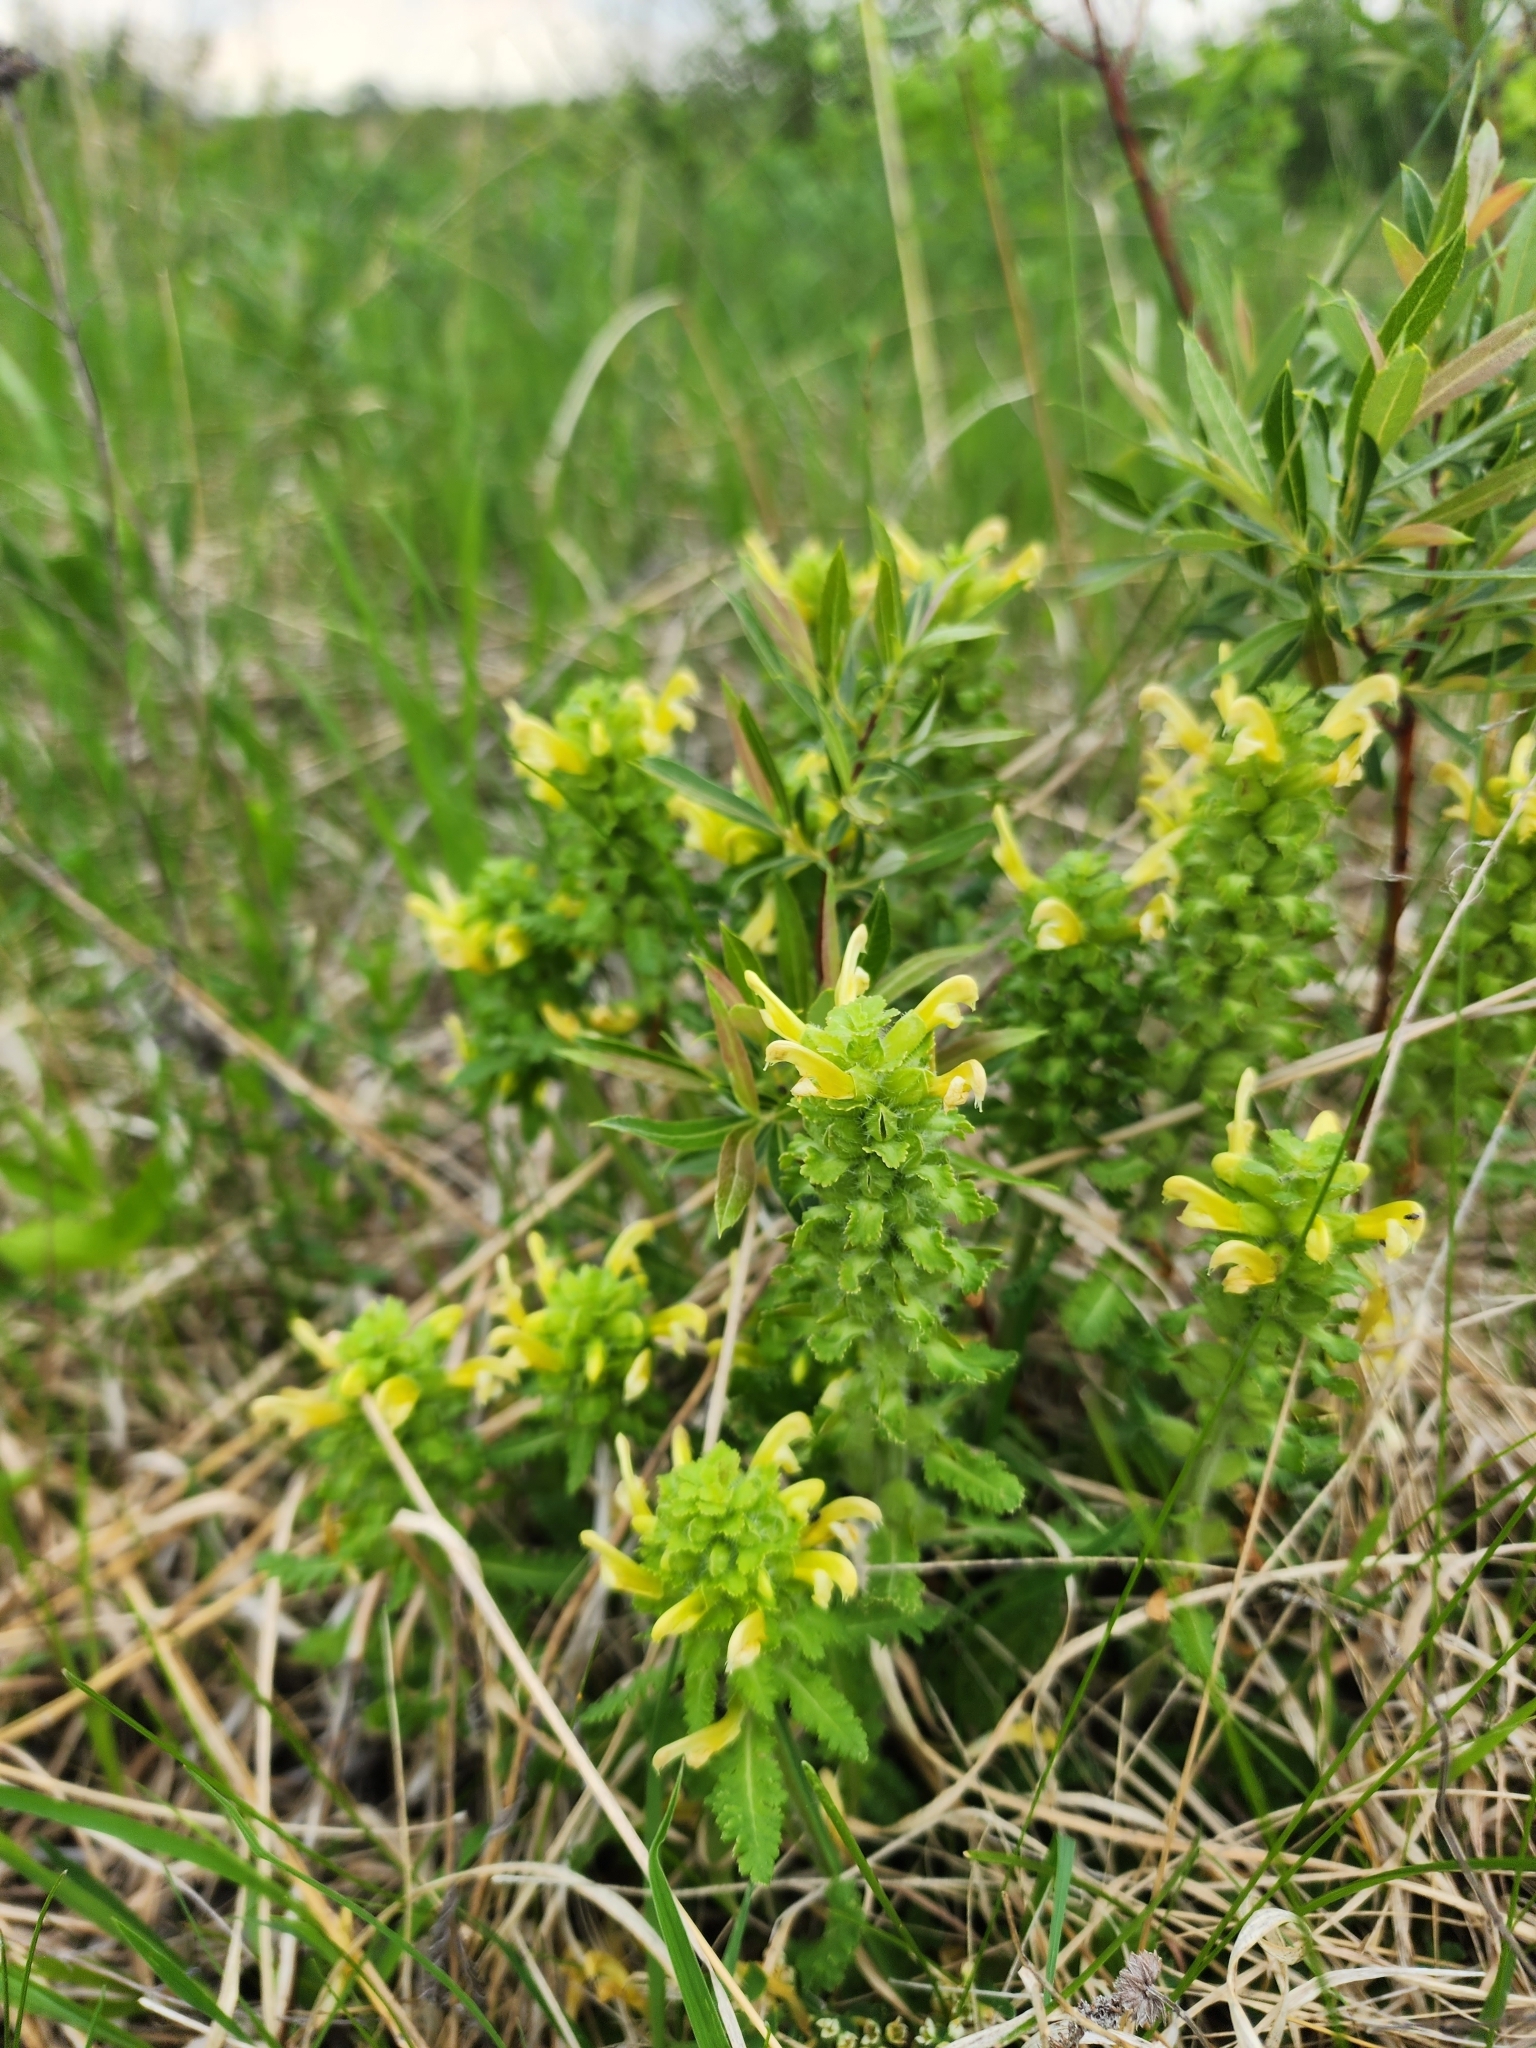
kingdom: Plantae
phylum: Tracheophyta
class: Magnoliopsida
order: Lamiales
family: Orobanchaceae
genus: Pedicularis
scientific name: Pedicularis canadensis
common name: Early lousewort
